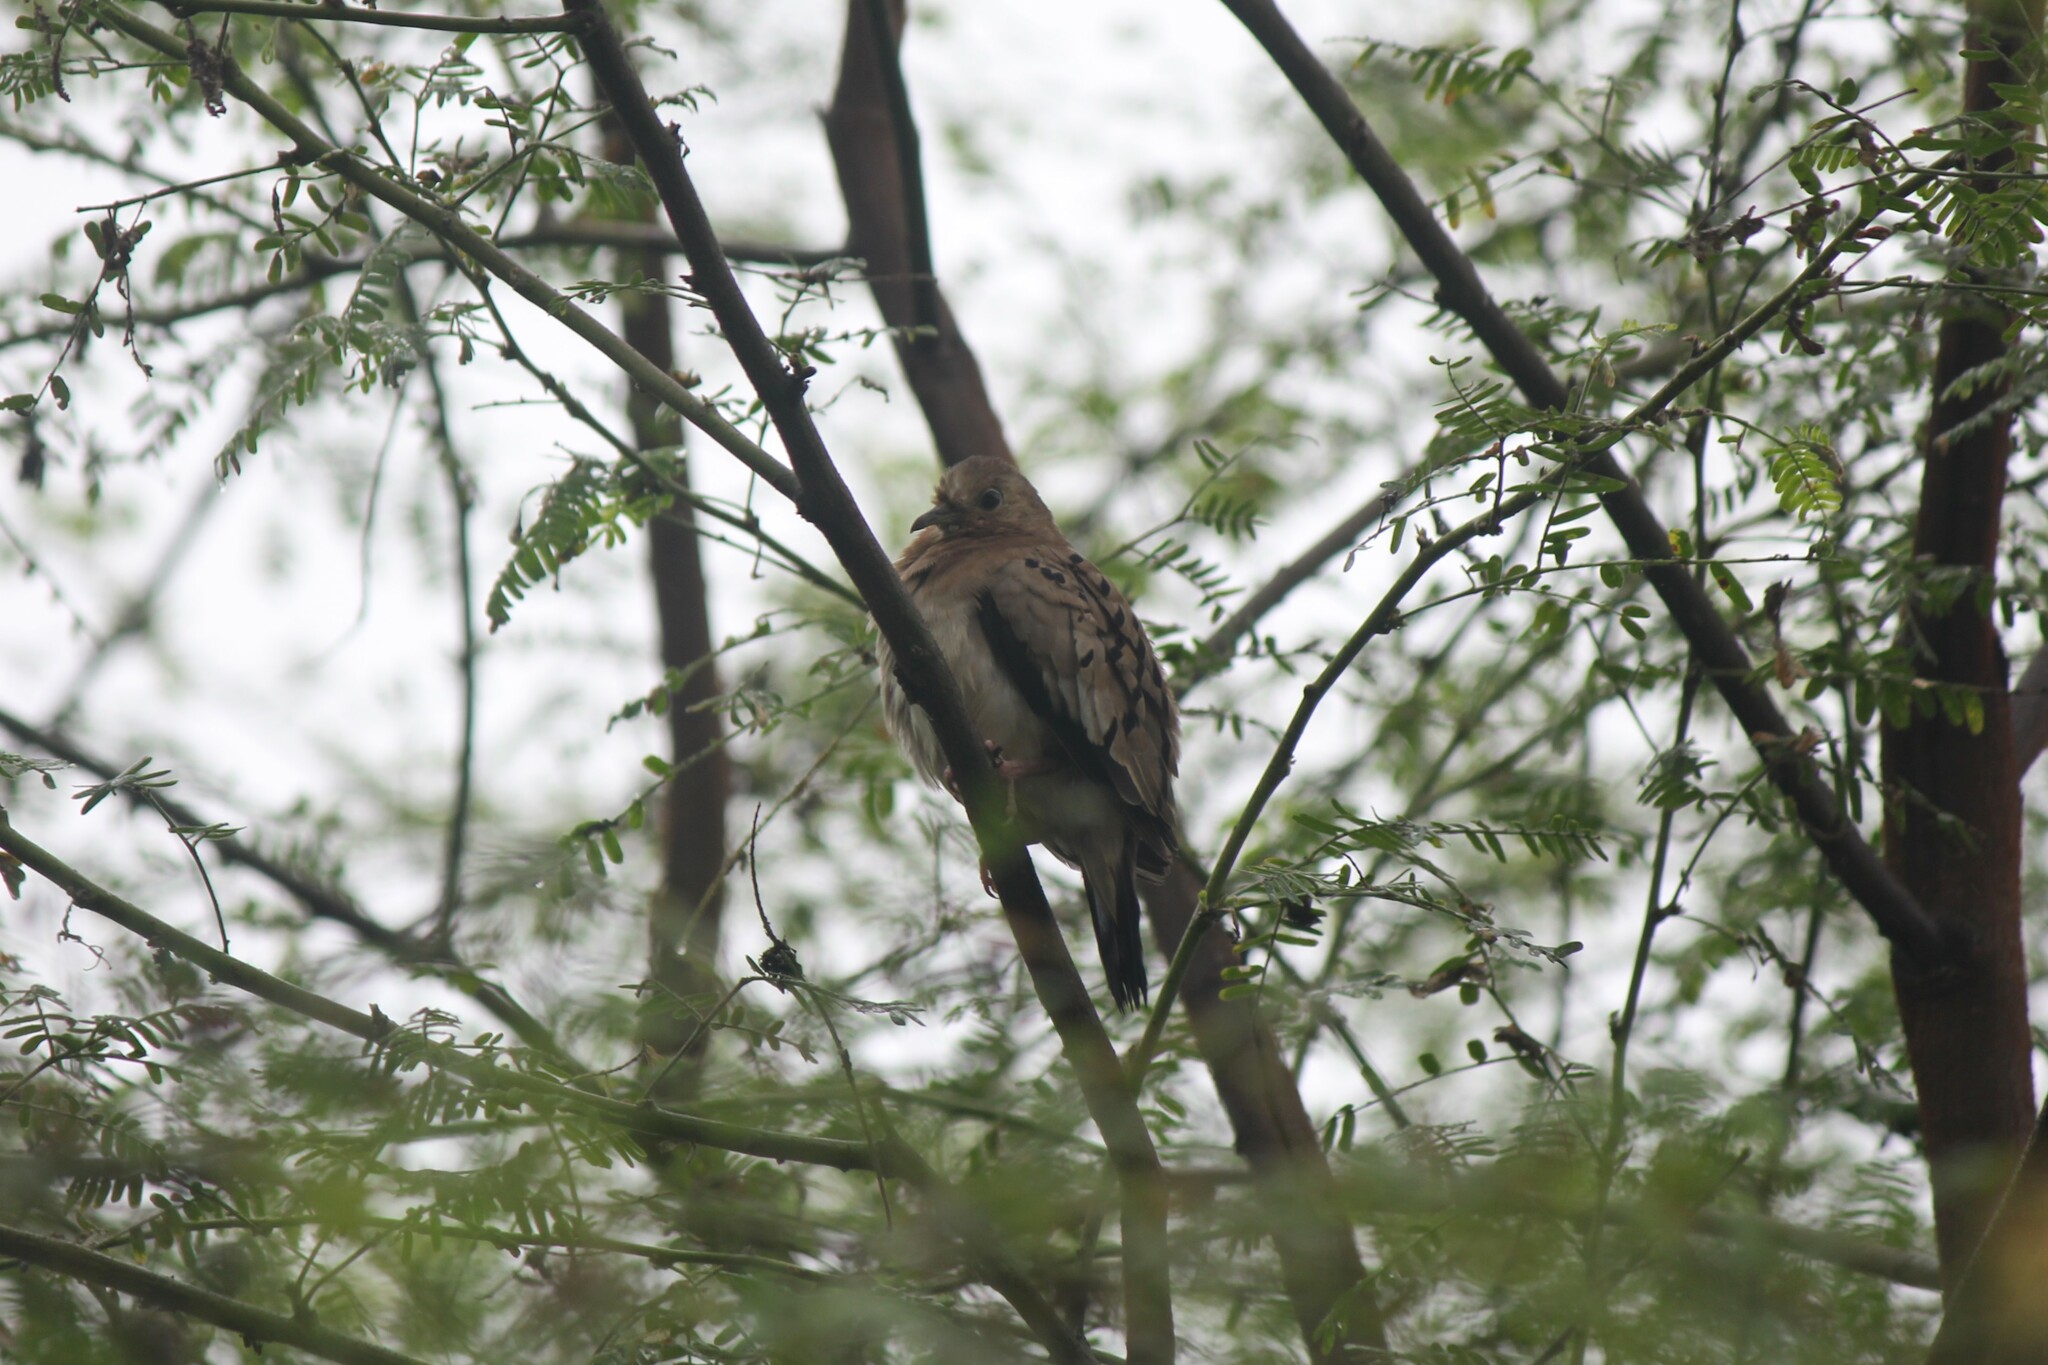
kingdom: Animalia
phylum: Chordata
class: Aves
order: Columbiformes
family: Columbidae
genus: Columbina
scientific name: Columbina buckleyi
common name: Ecuadorian ground dove
